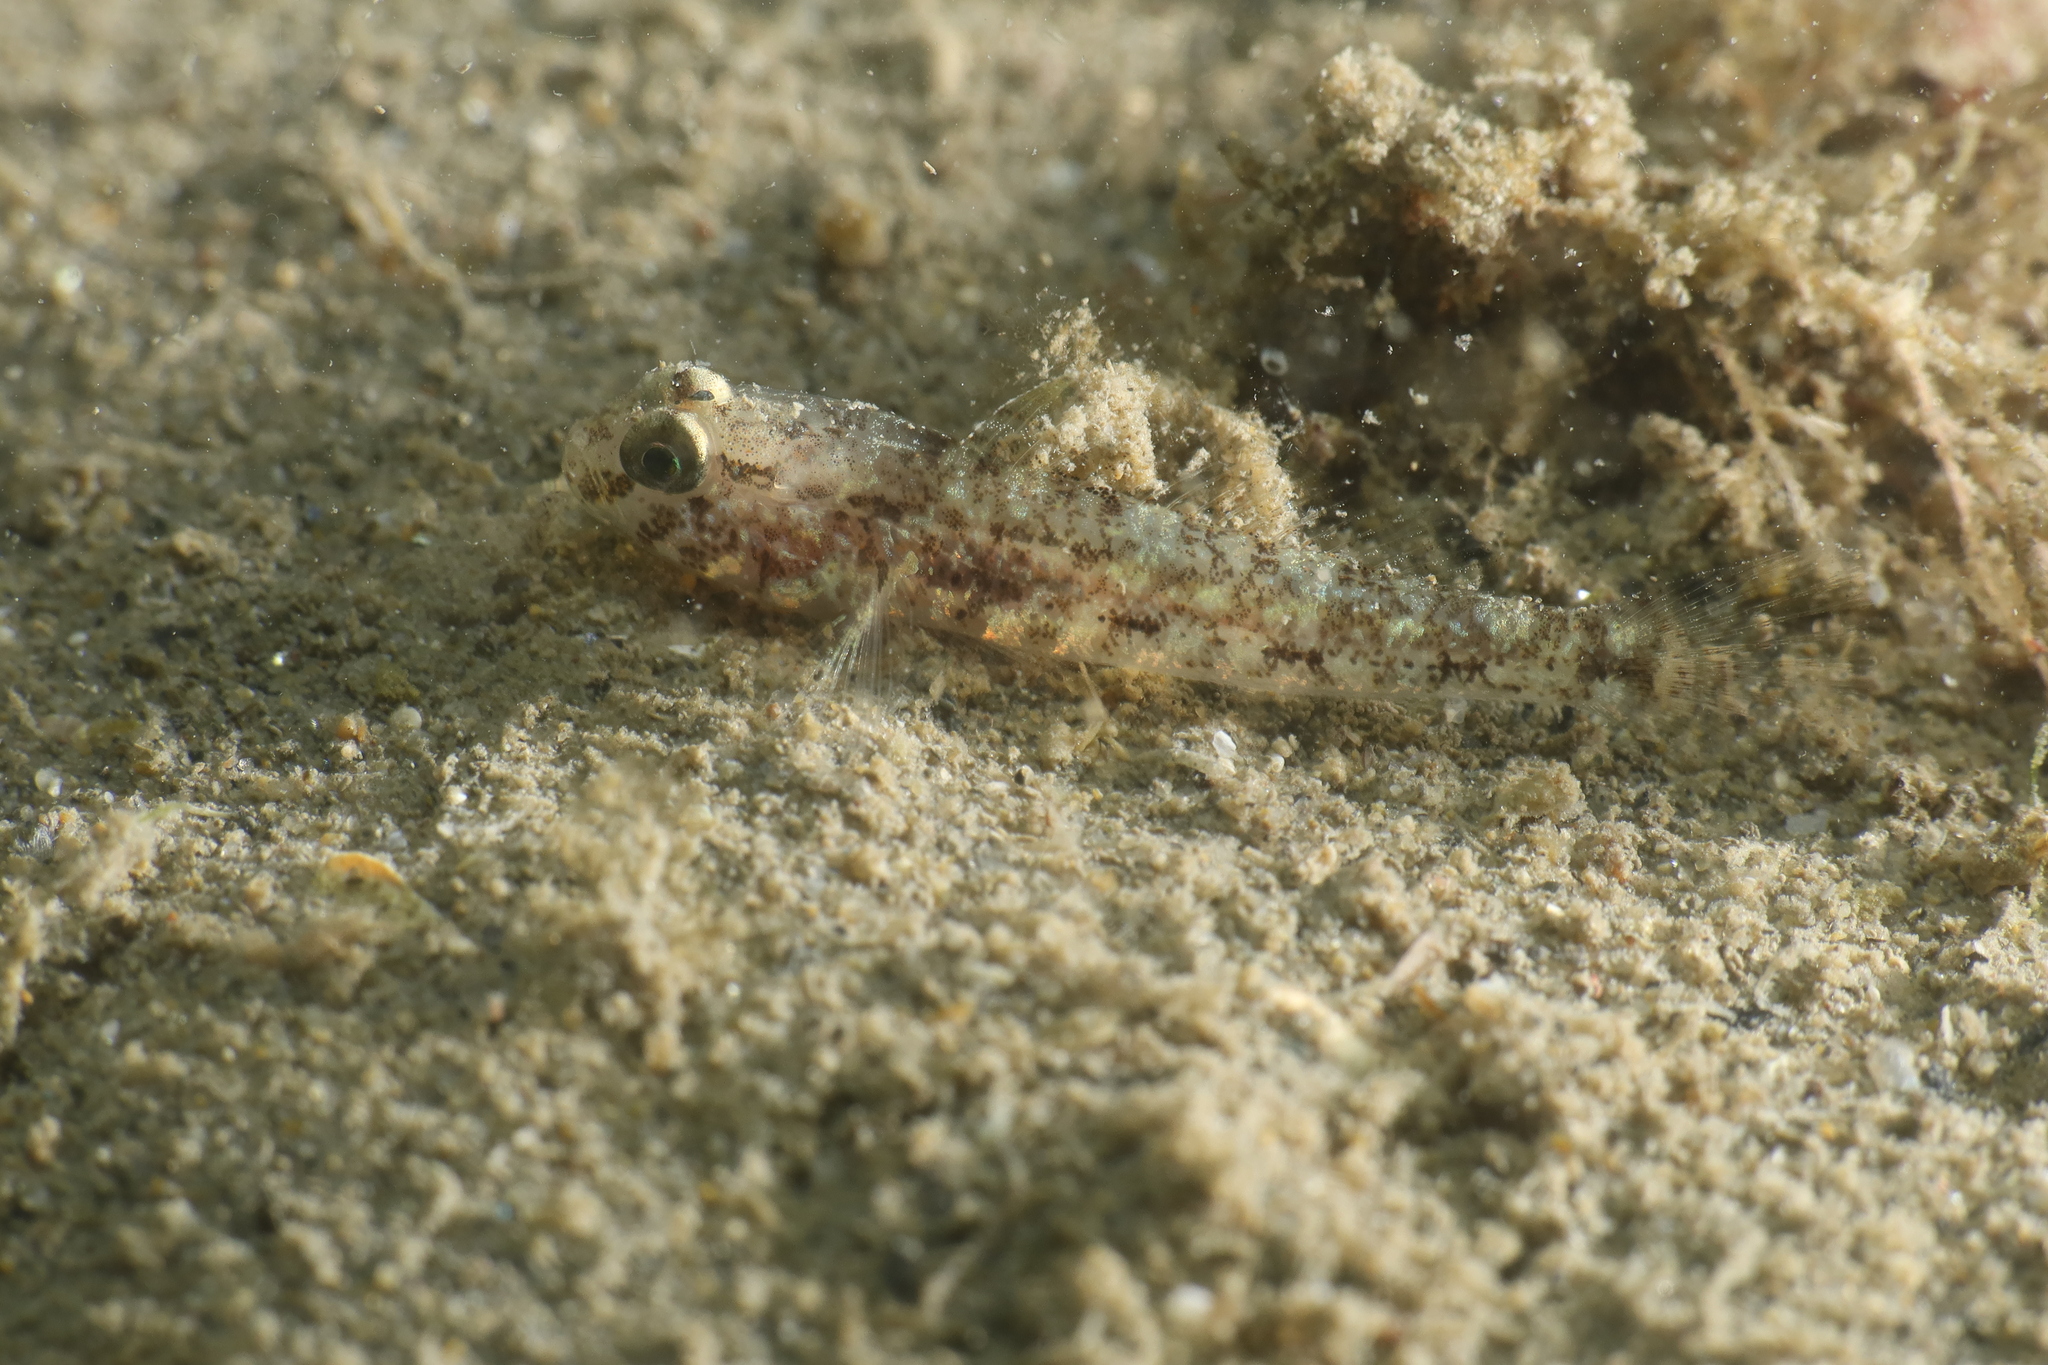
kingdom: Animalia
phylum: Chordata
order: Perciformes
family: Gobiidae
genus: Gobius
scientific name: Gobius niger
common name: Black goby
